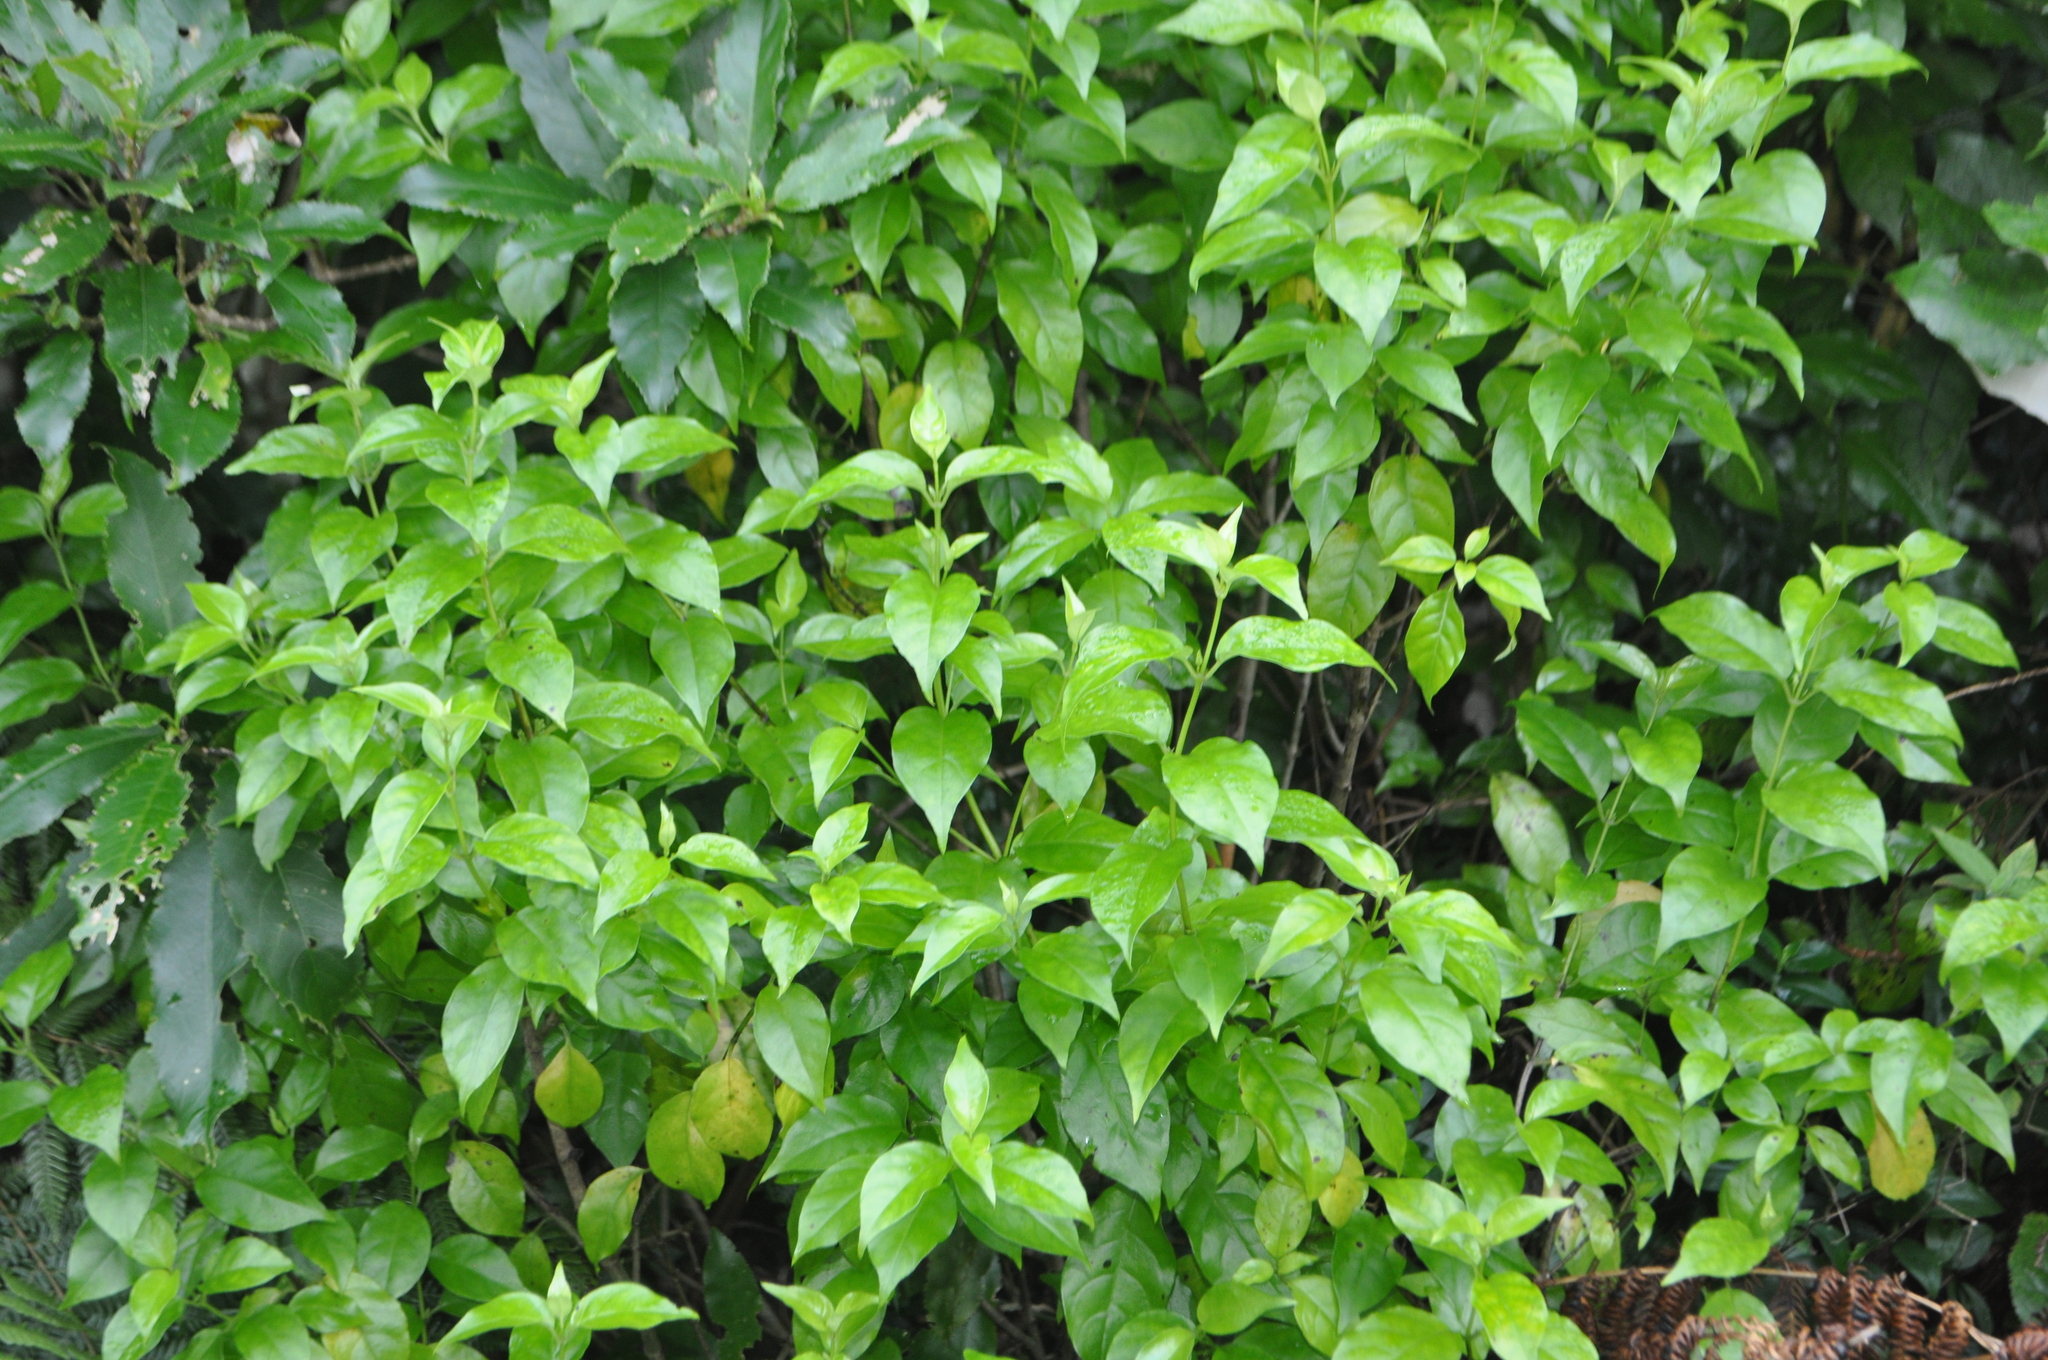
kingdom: Plantae
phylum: Tracheophyta
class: Magnoliopsida
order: Gentianales
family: Loganiaceae
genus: Geniostoma
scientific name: Geniostoma ligustrifolium
